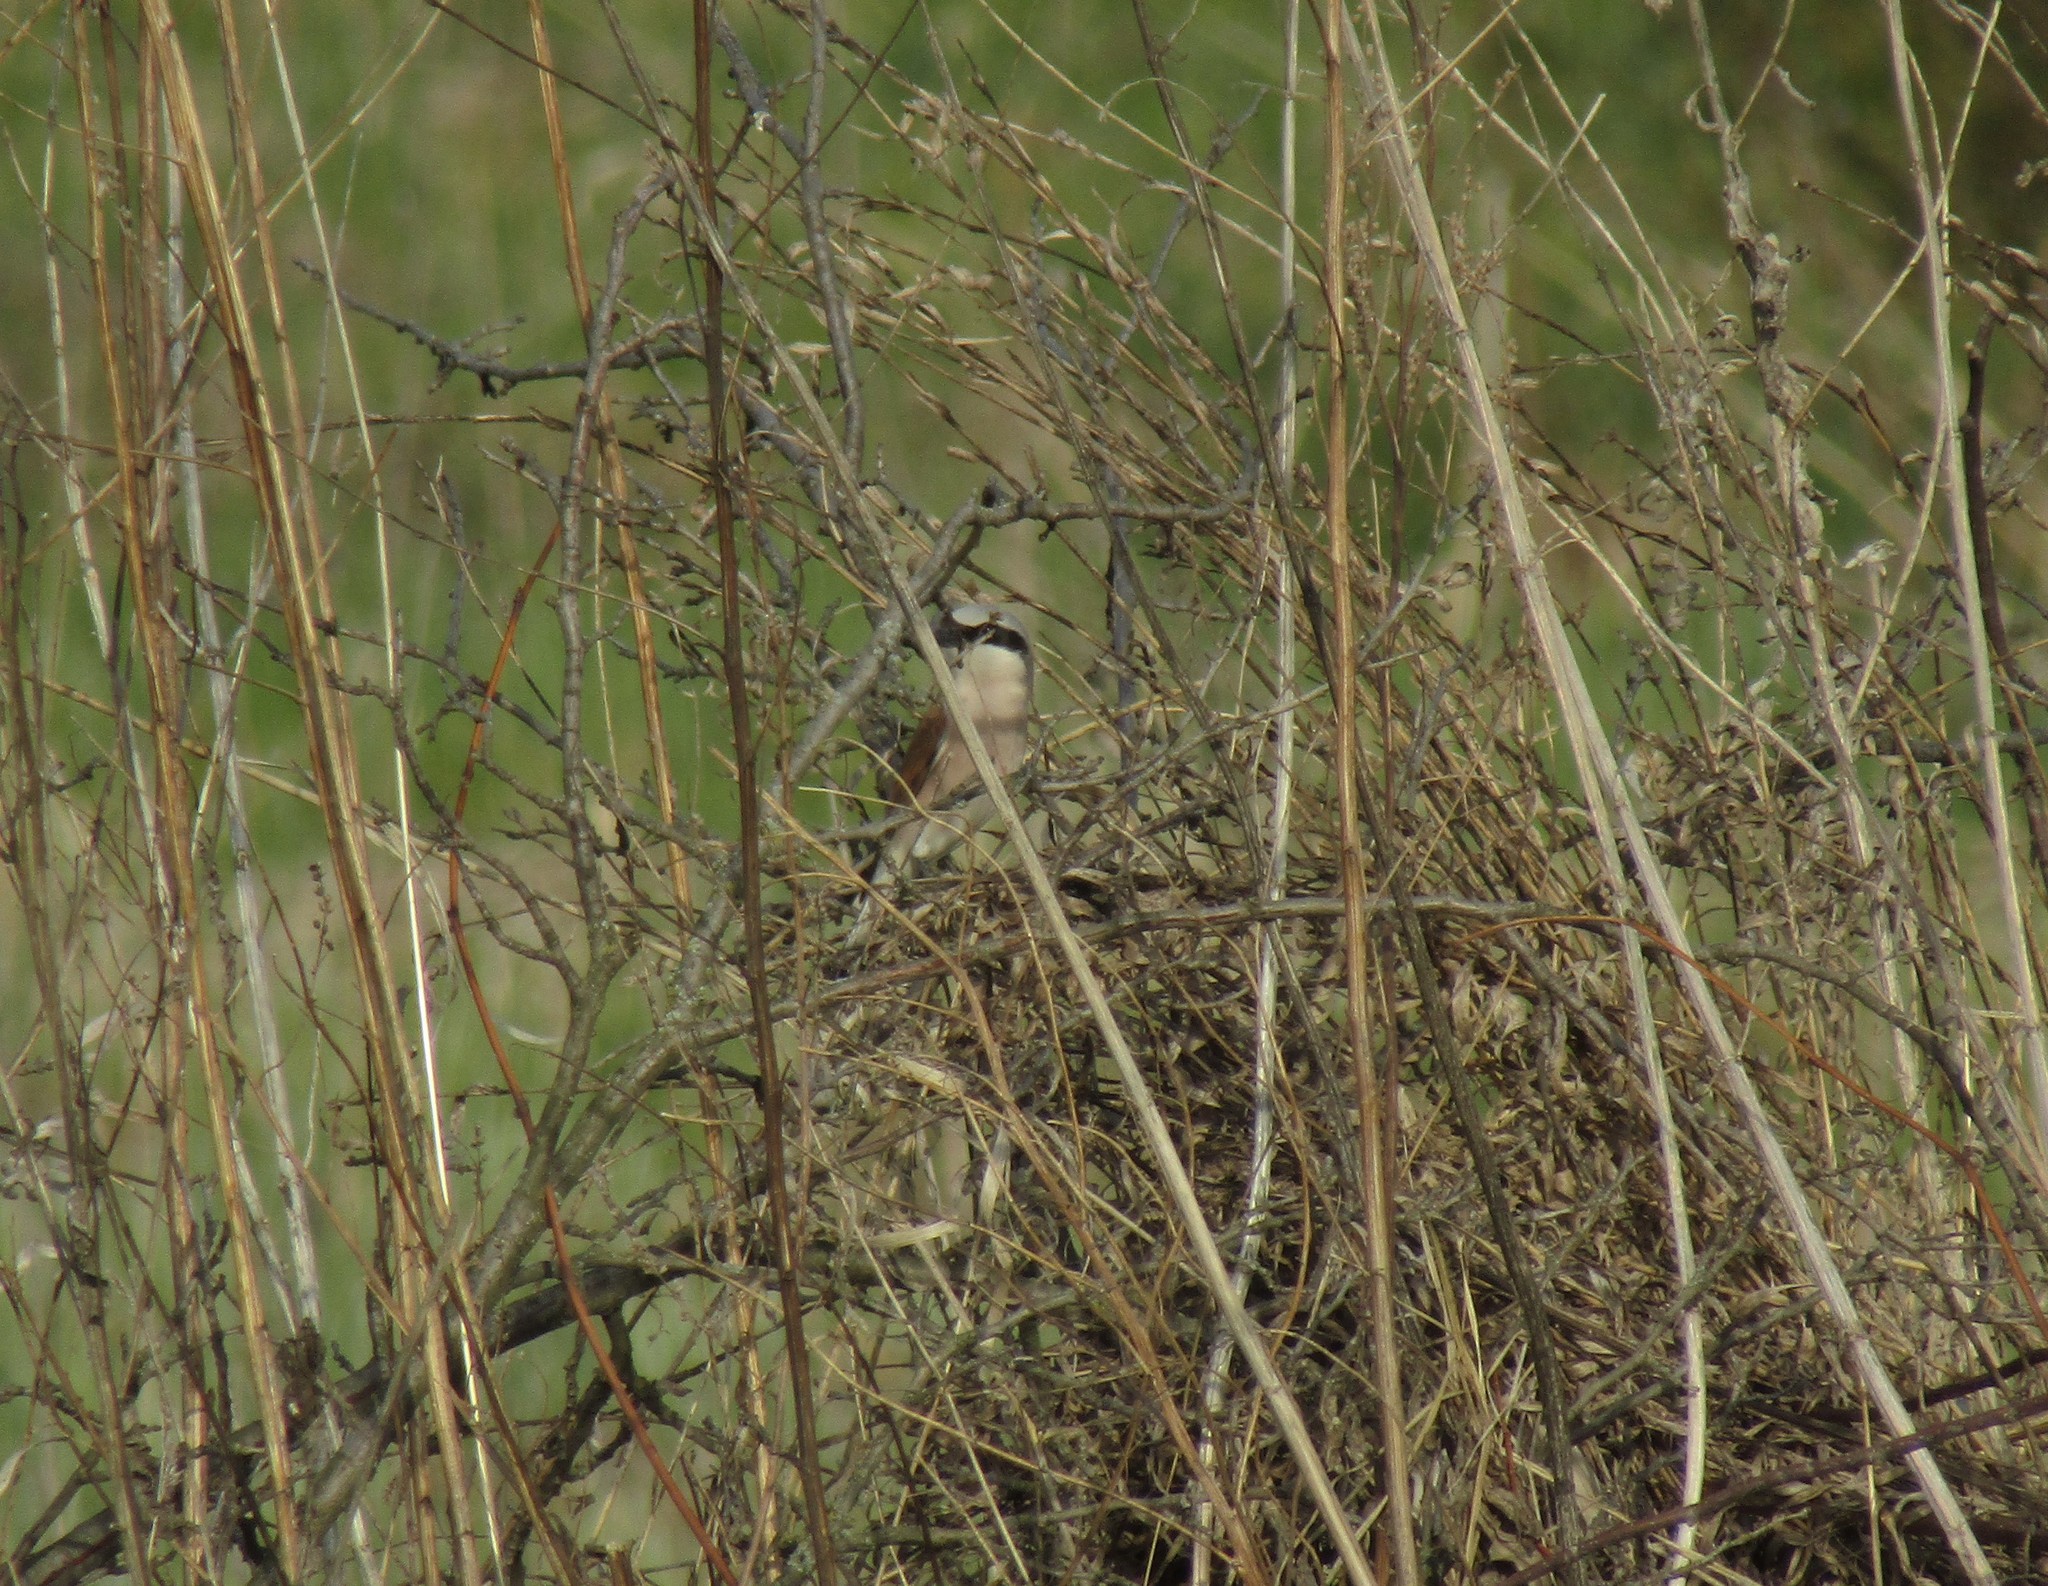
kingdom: Animalia
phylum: Chordata
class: Aves
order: Passeriformes
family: Laniidae
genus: Lanius
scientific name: Lanius collurio
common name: Red-backed shrike
